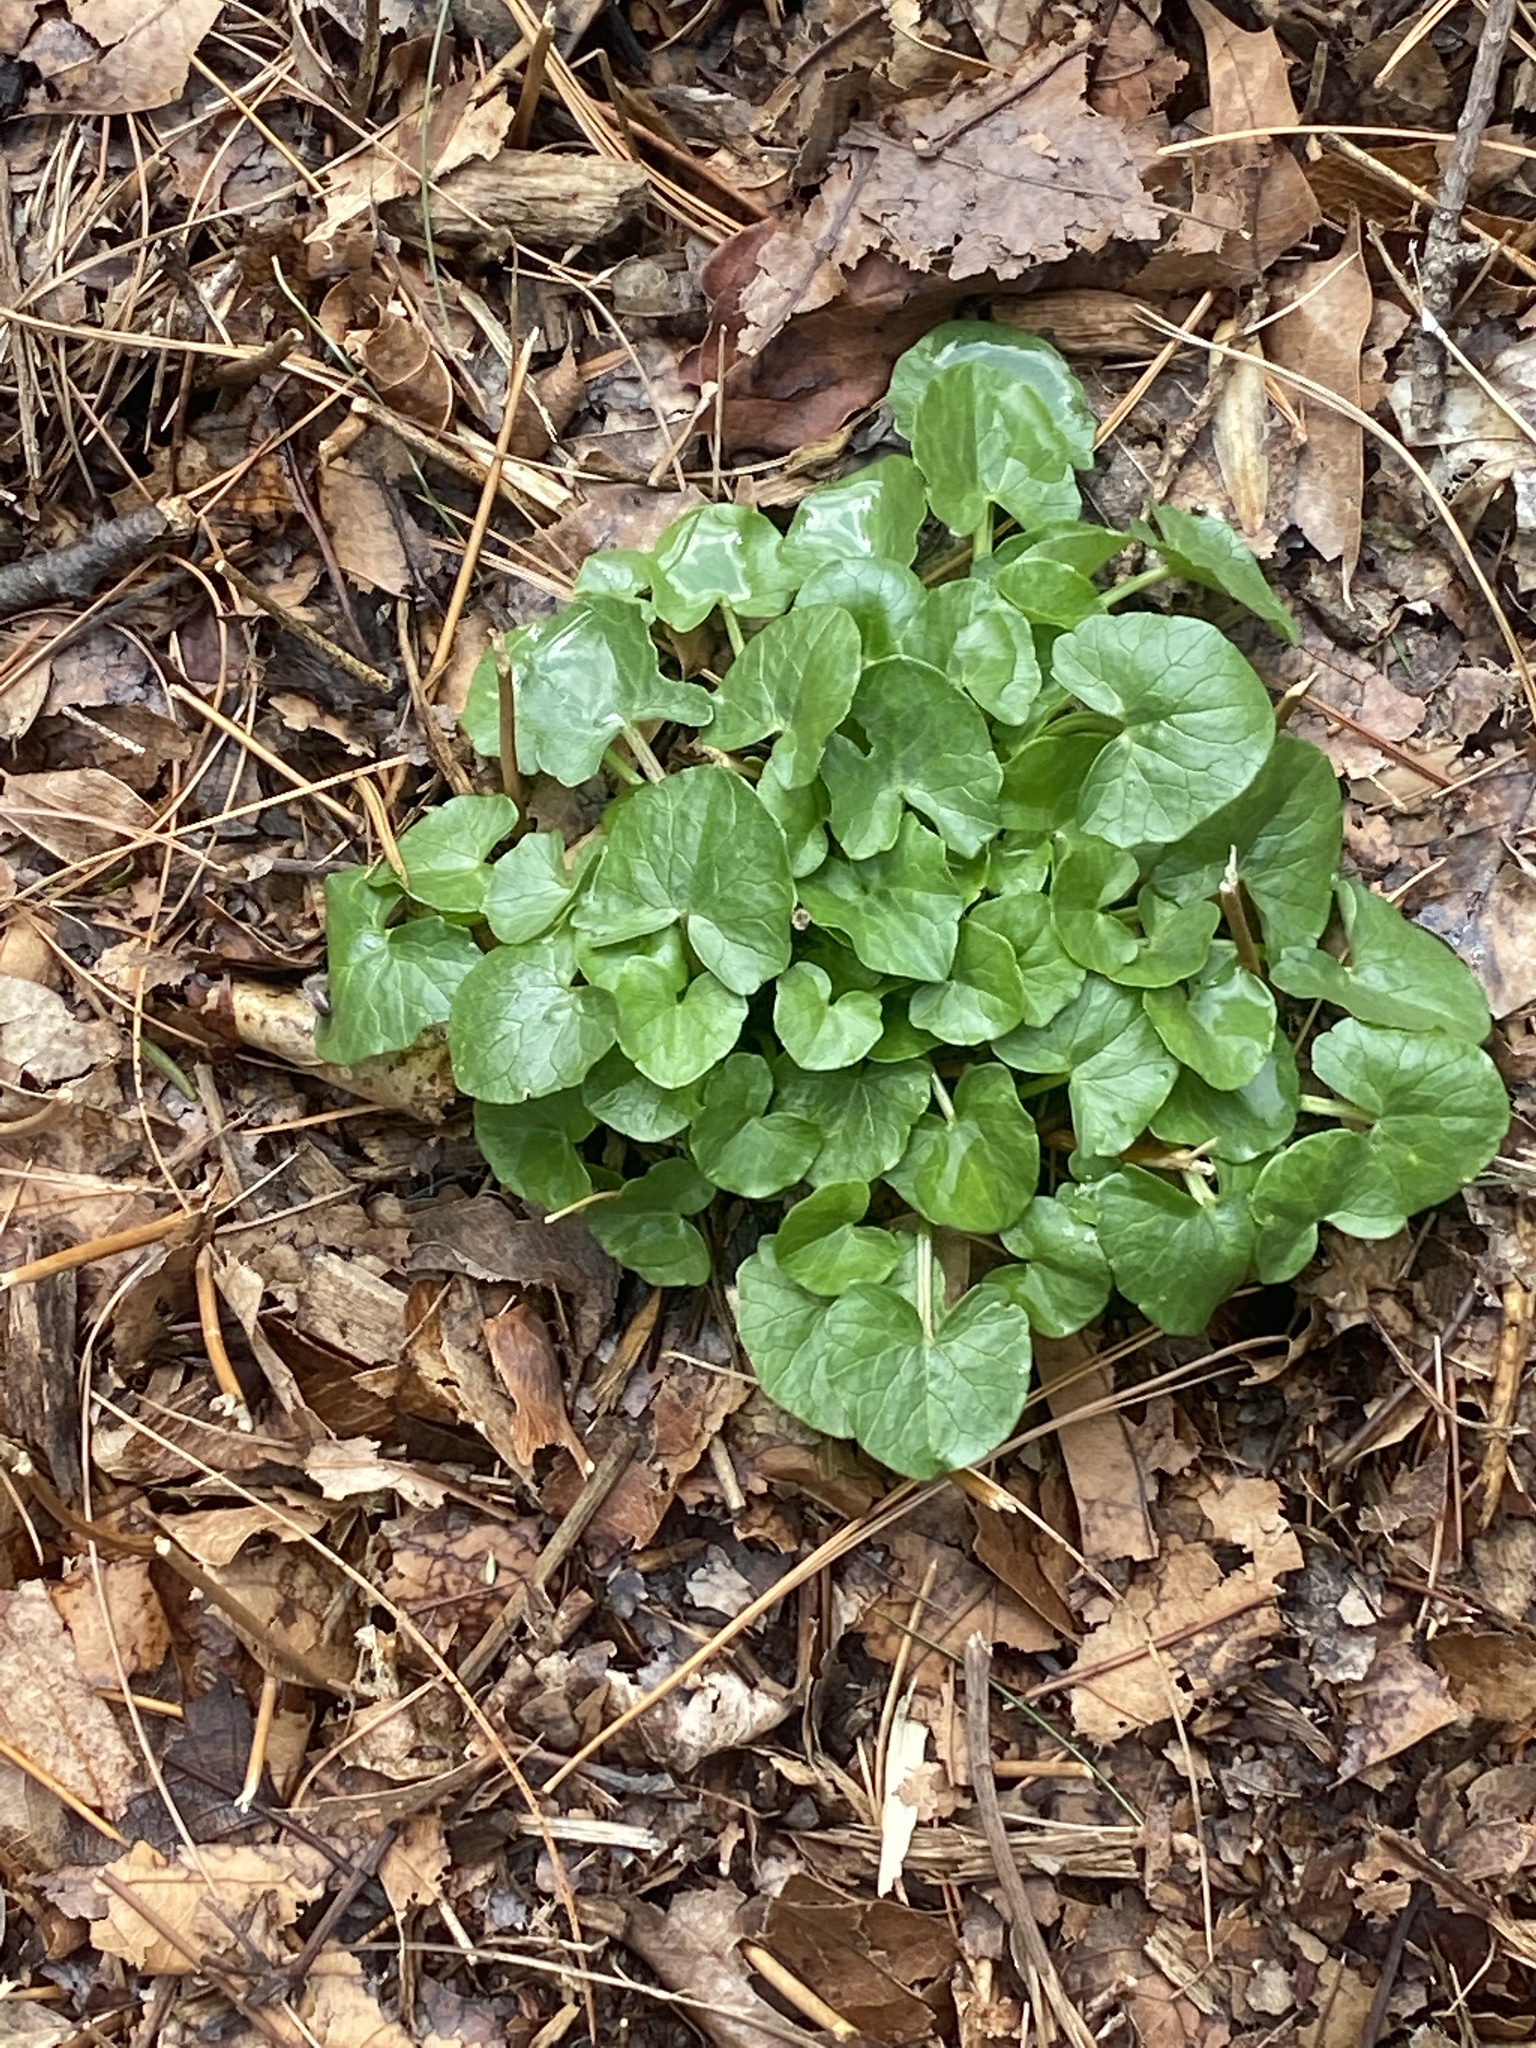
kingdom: Plantae
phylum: Tracheophyta
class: Magnoliopsida
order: Ranunculales
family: Ranunculaceae
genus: Ficaria
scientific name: Ficaria verna
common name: Lesser celandine
